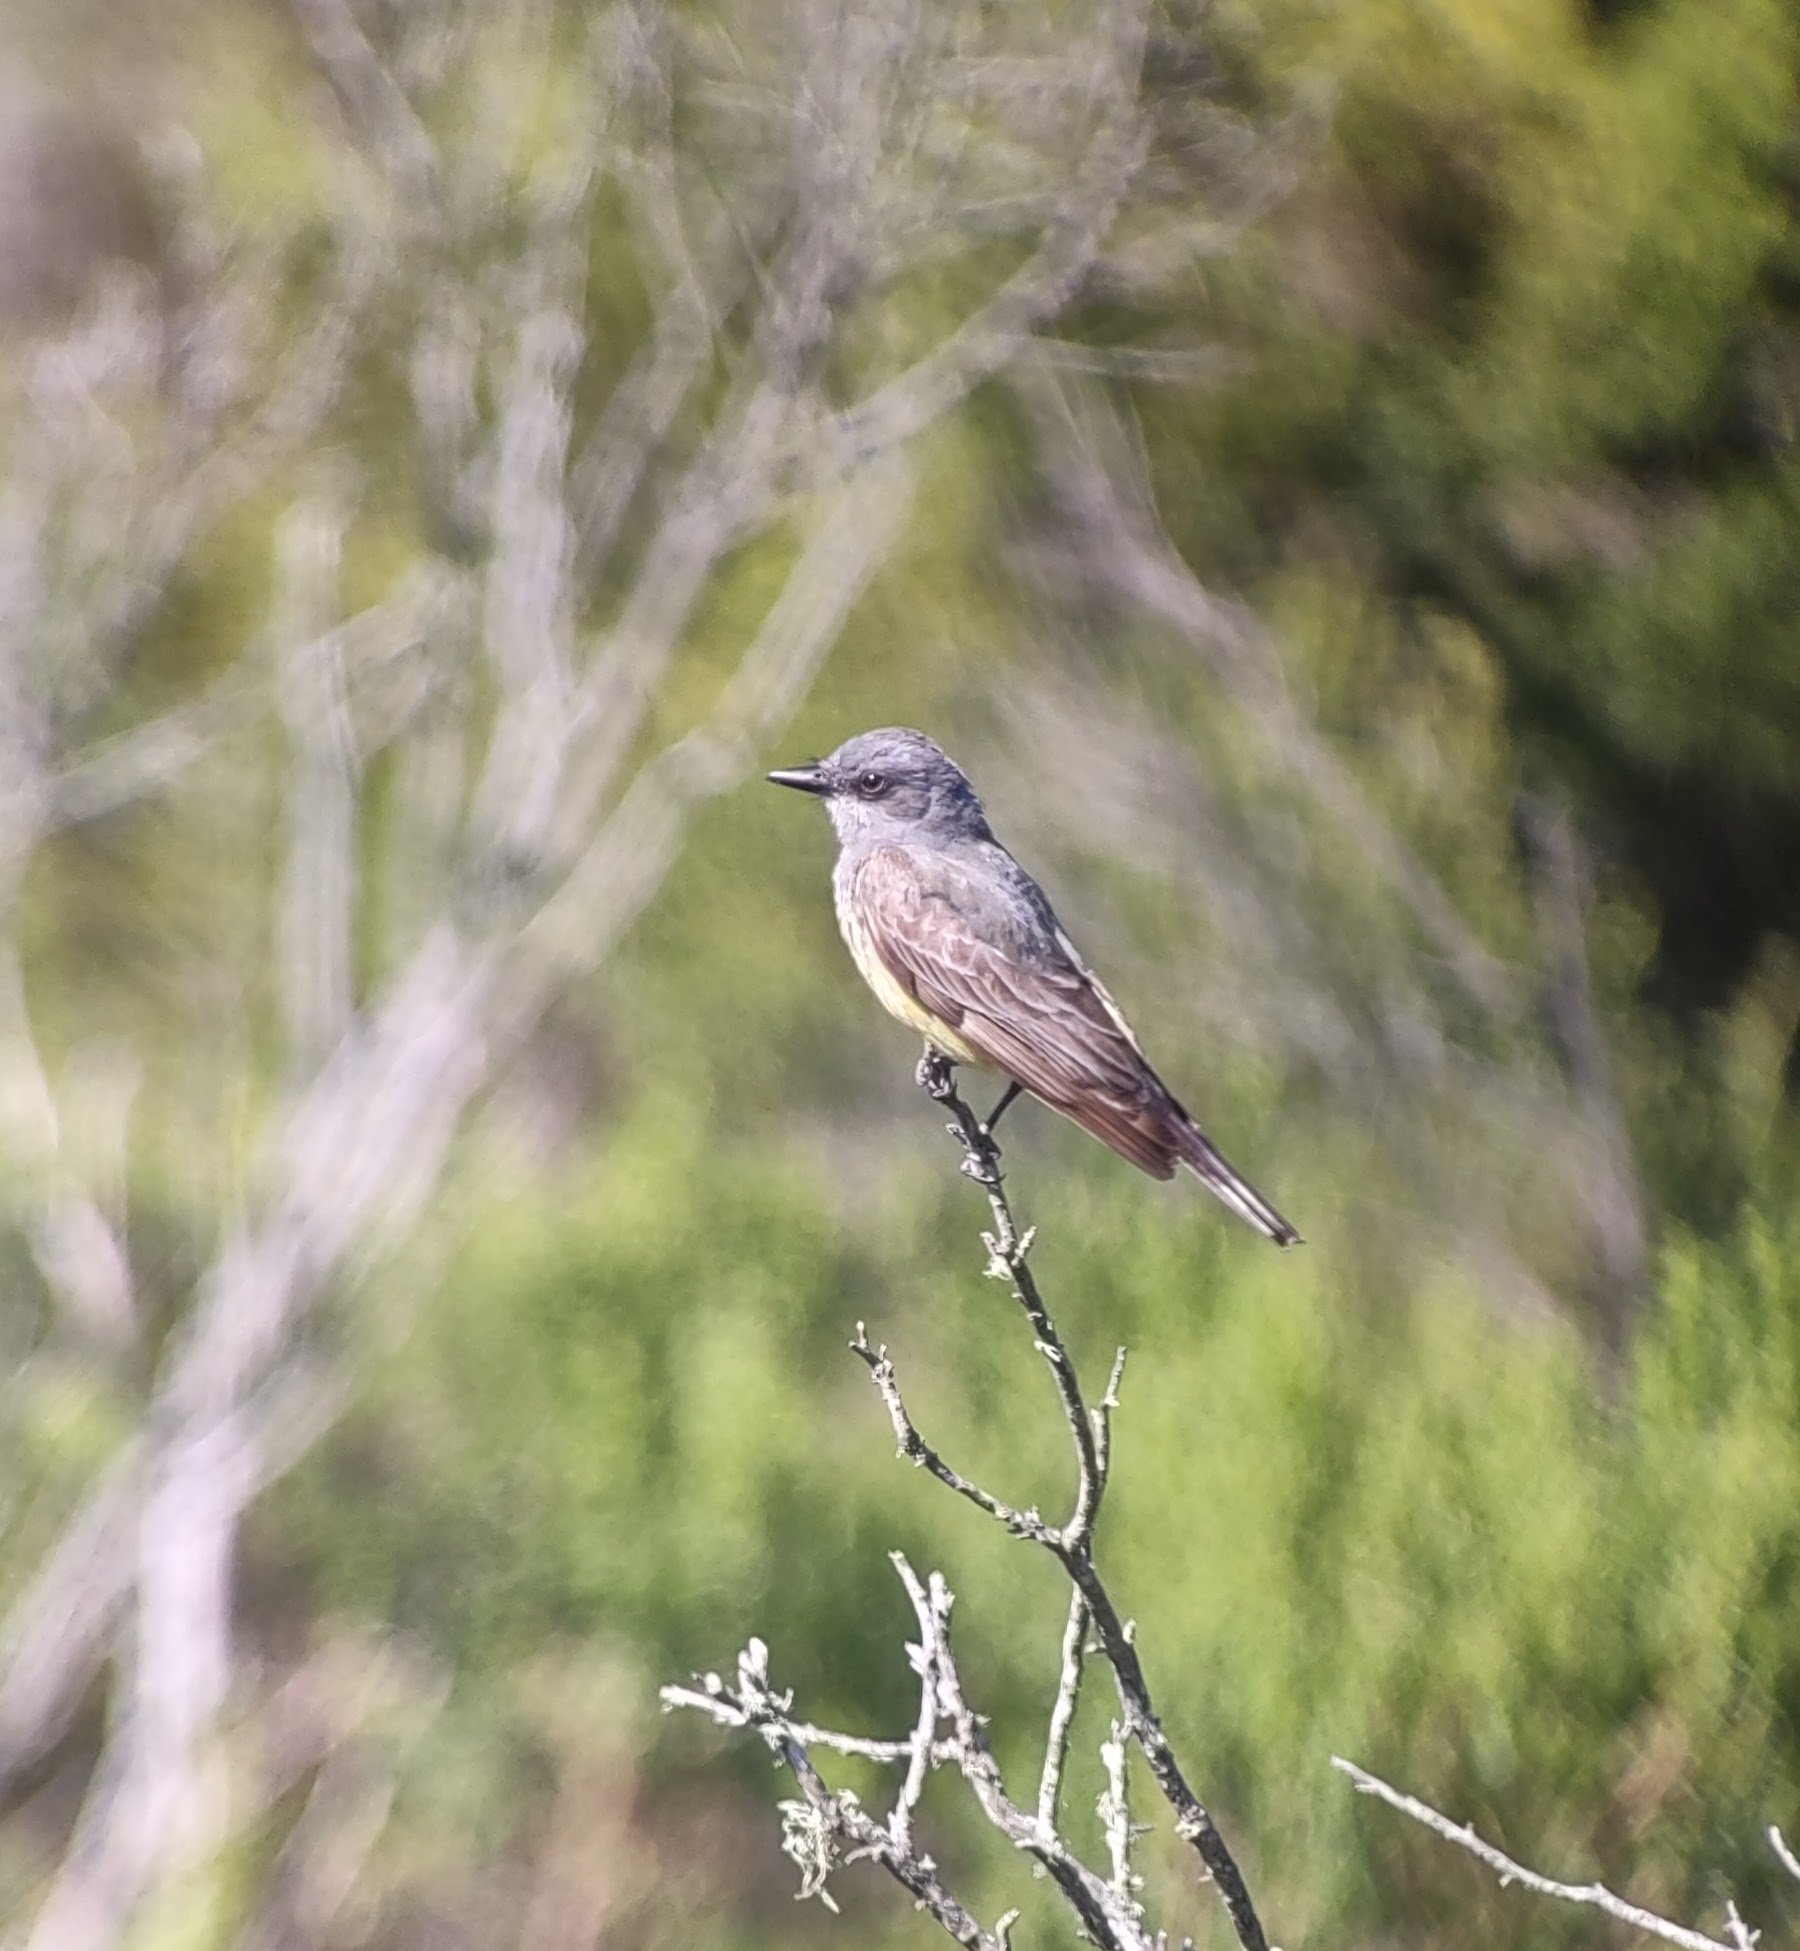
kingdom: Animalia
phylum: Chordata
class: Aves
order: Passeriformes
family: Tyrannidae
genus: Tyrannus
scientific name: Tyrannus vociferans
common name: Cassin's kingbird
